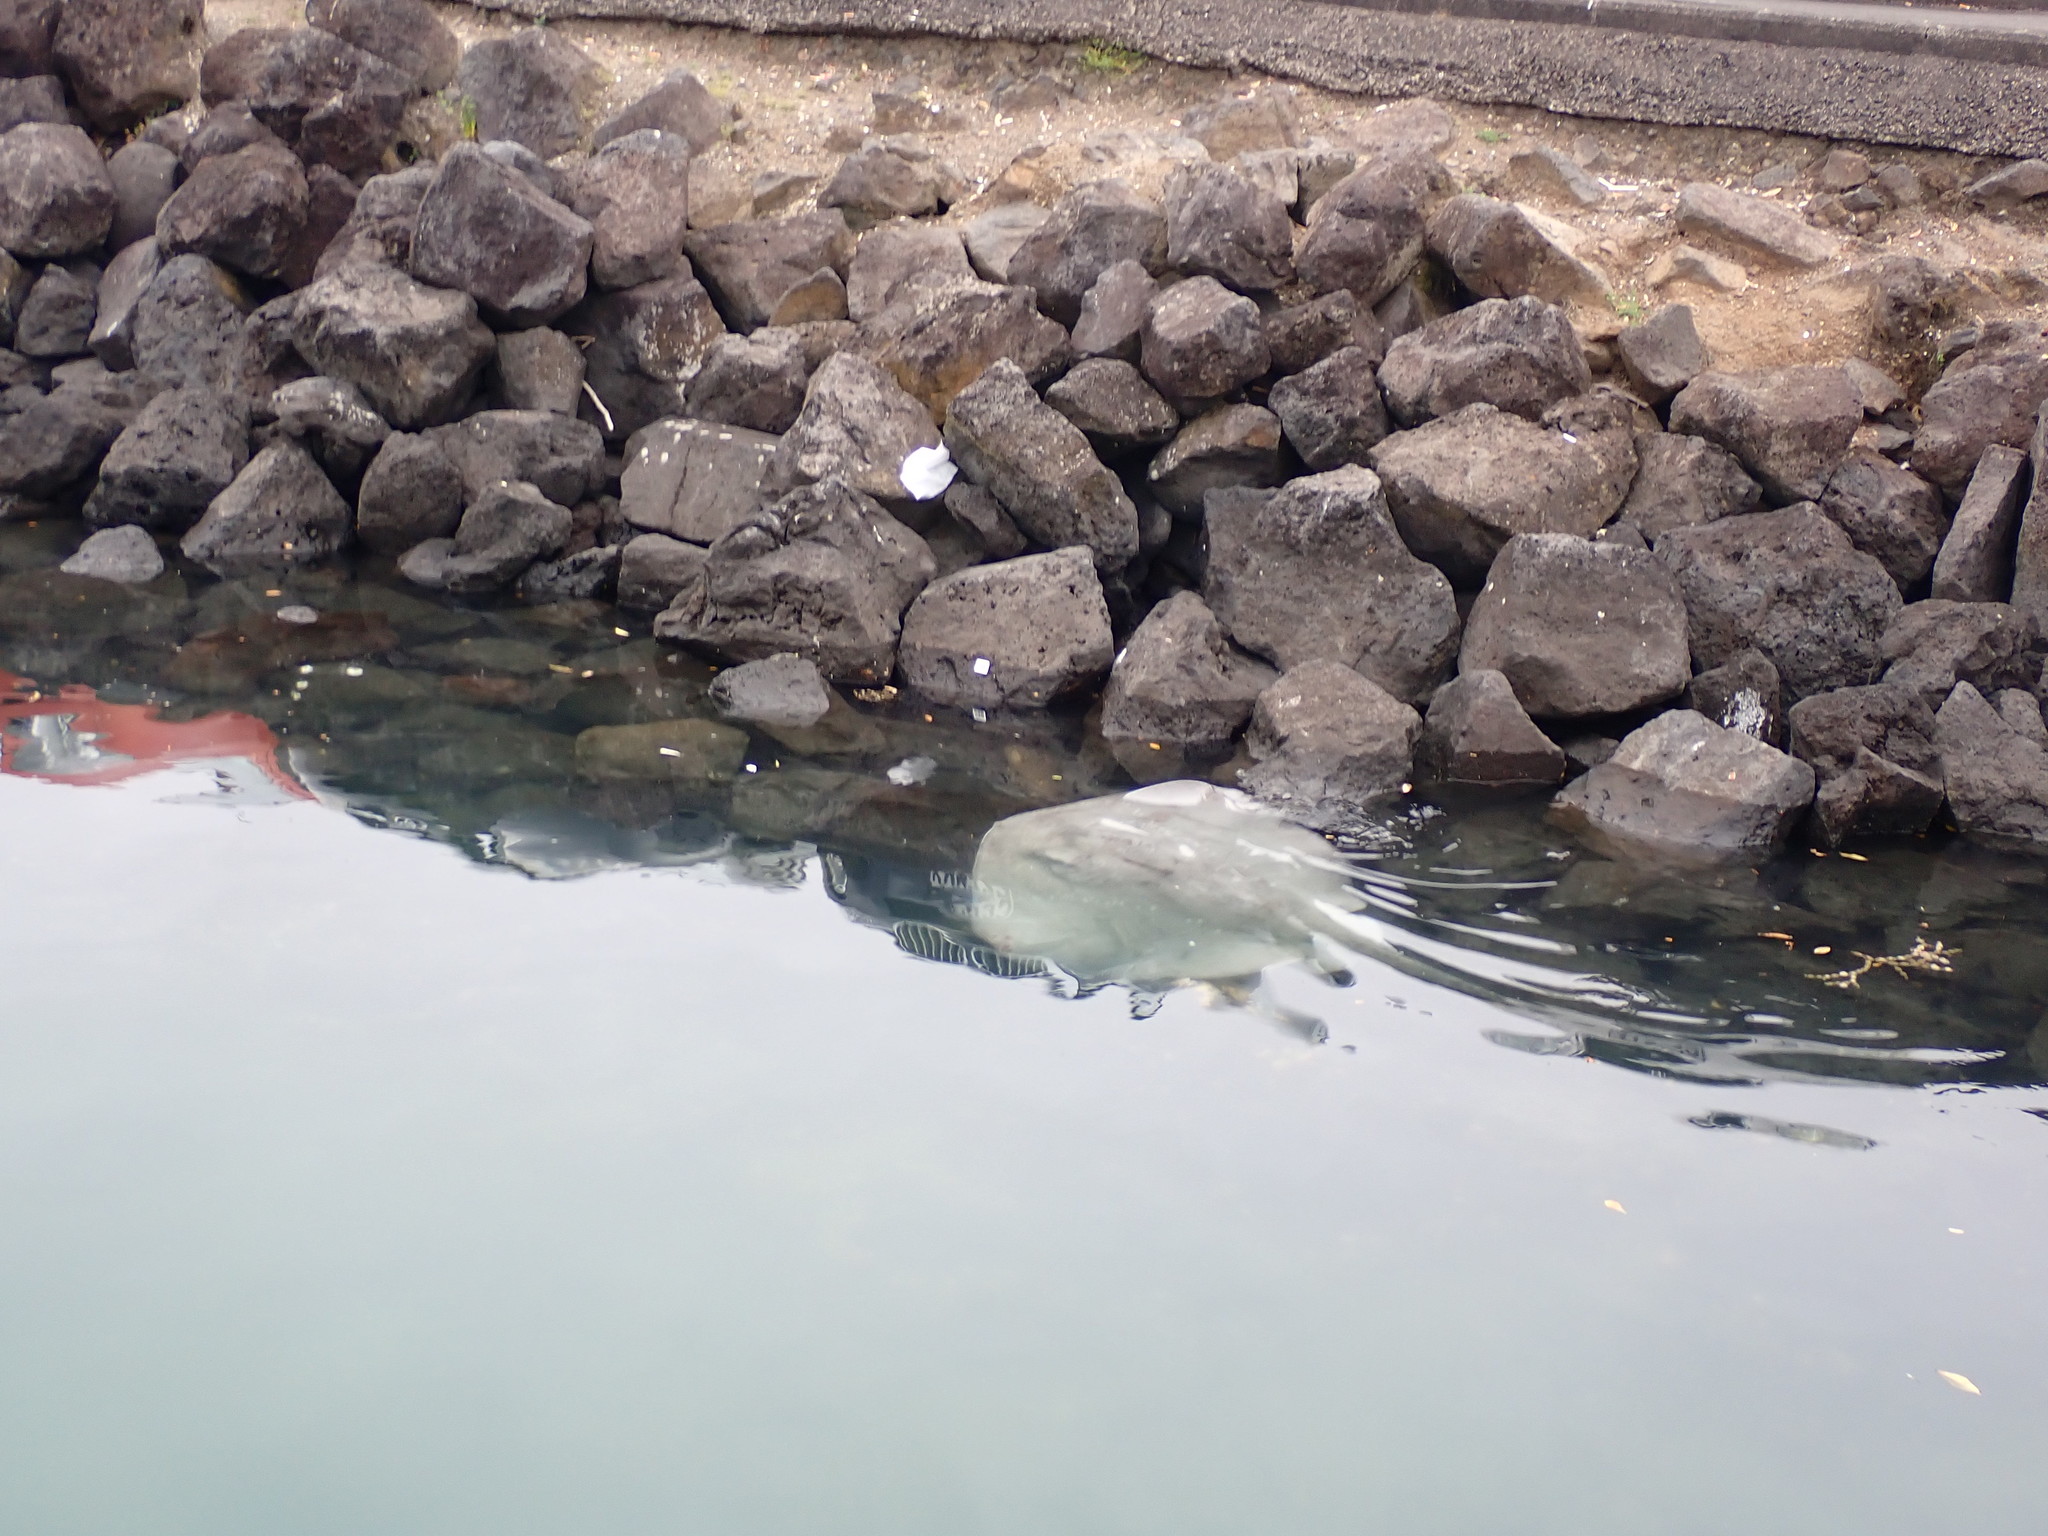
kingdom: Animalia
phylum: Chordata
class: Elasmobranchii
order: Myliobatiformes
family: Dasyatidae
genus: Bathytoshia
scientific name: Bathytoshia brevicaudata
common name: Short-tail stingray
